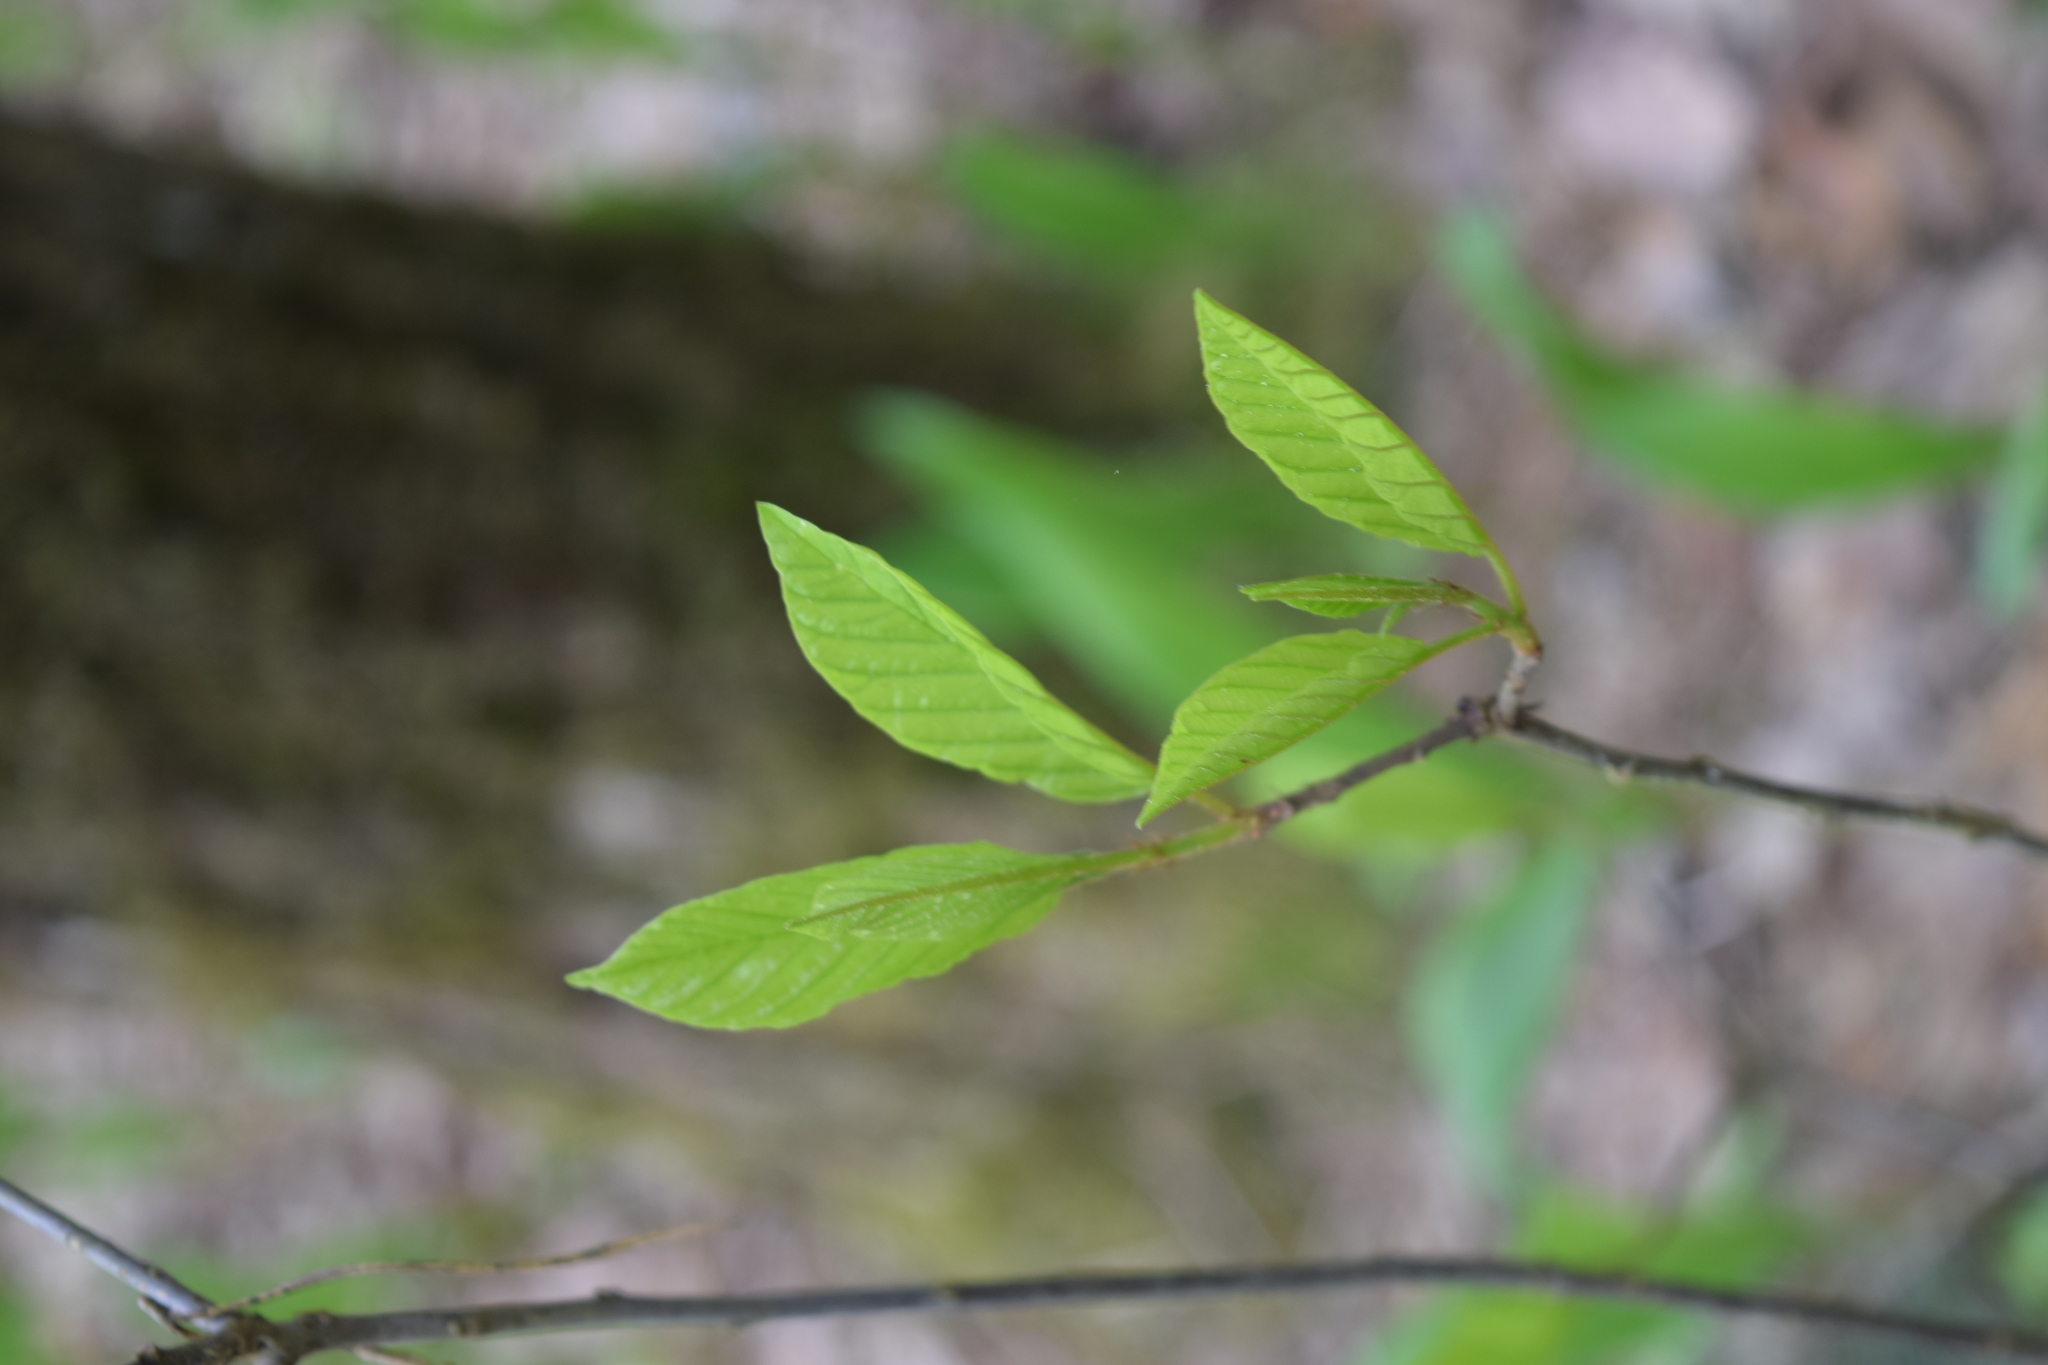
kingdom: Plantae
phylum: Tracheophyta
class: Magnoliopsida
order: Rosales
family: Rhamnaceae
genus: Frangula
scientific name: Frangula alnus
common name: Alder buckthorn
